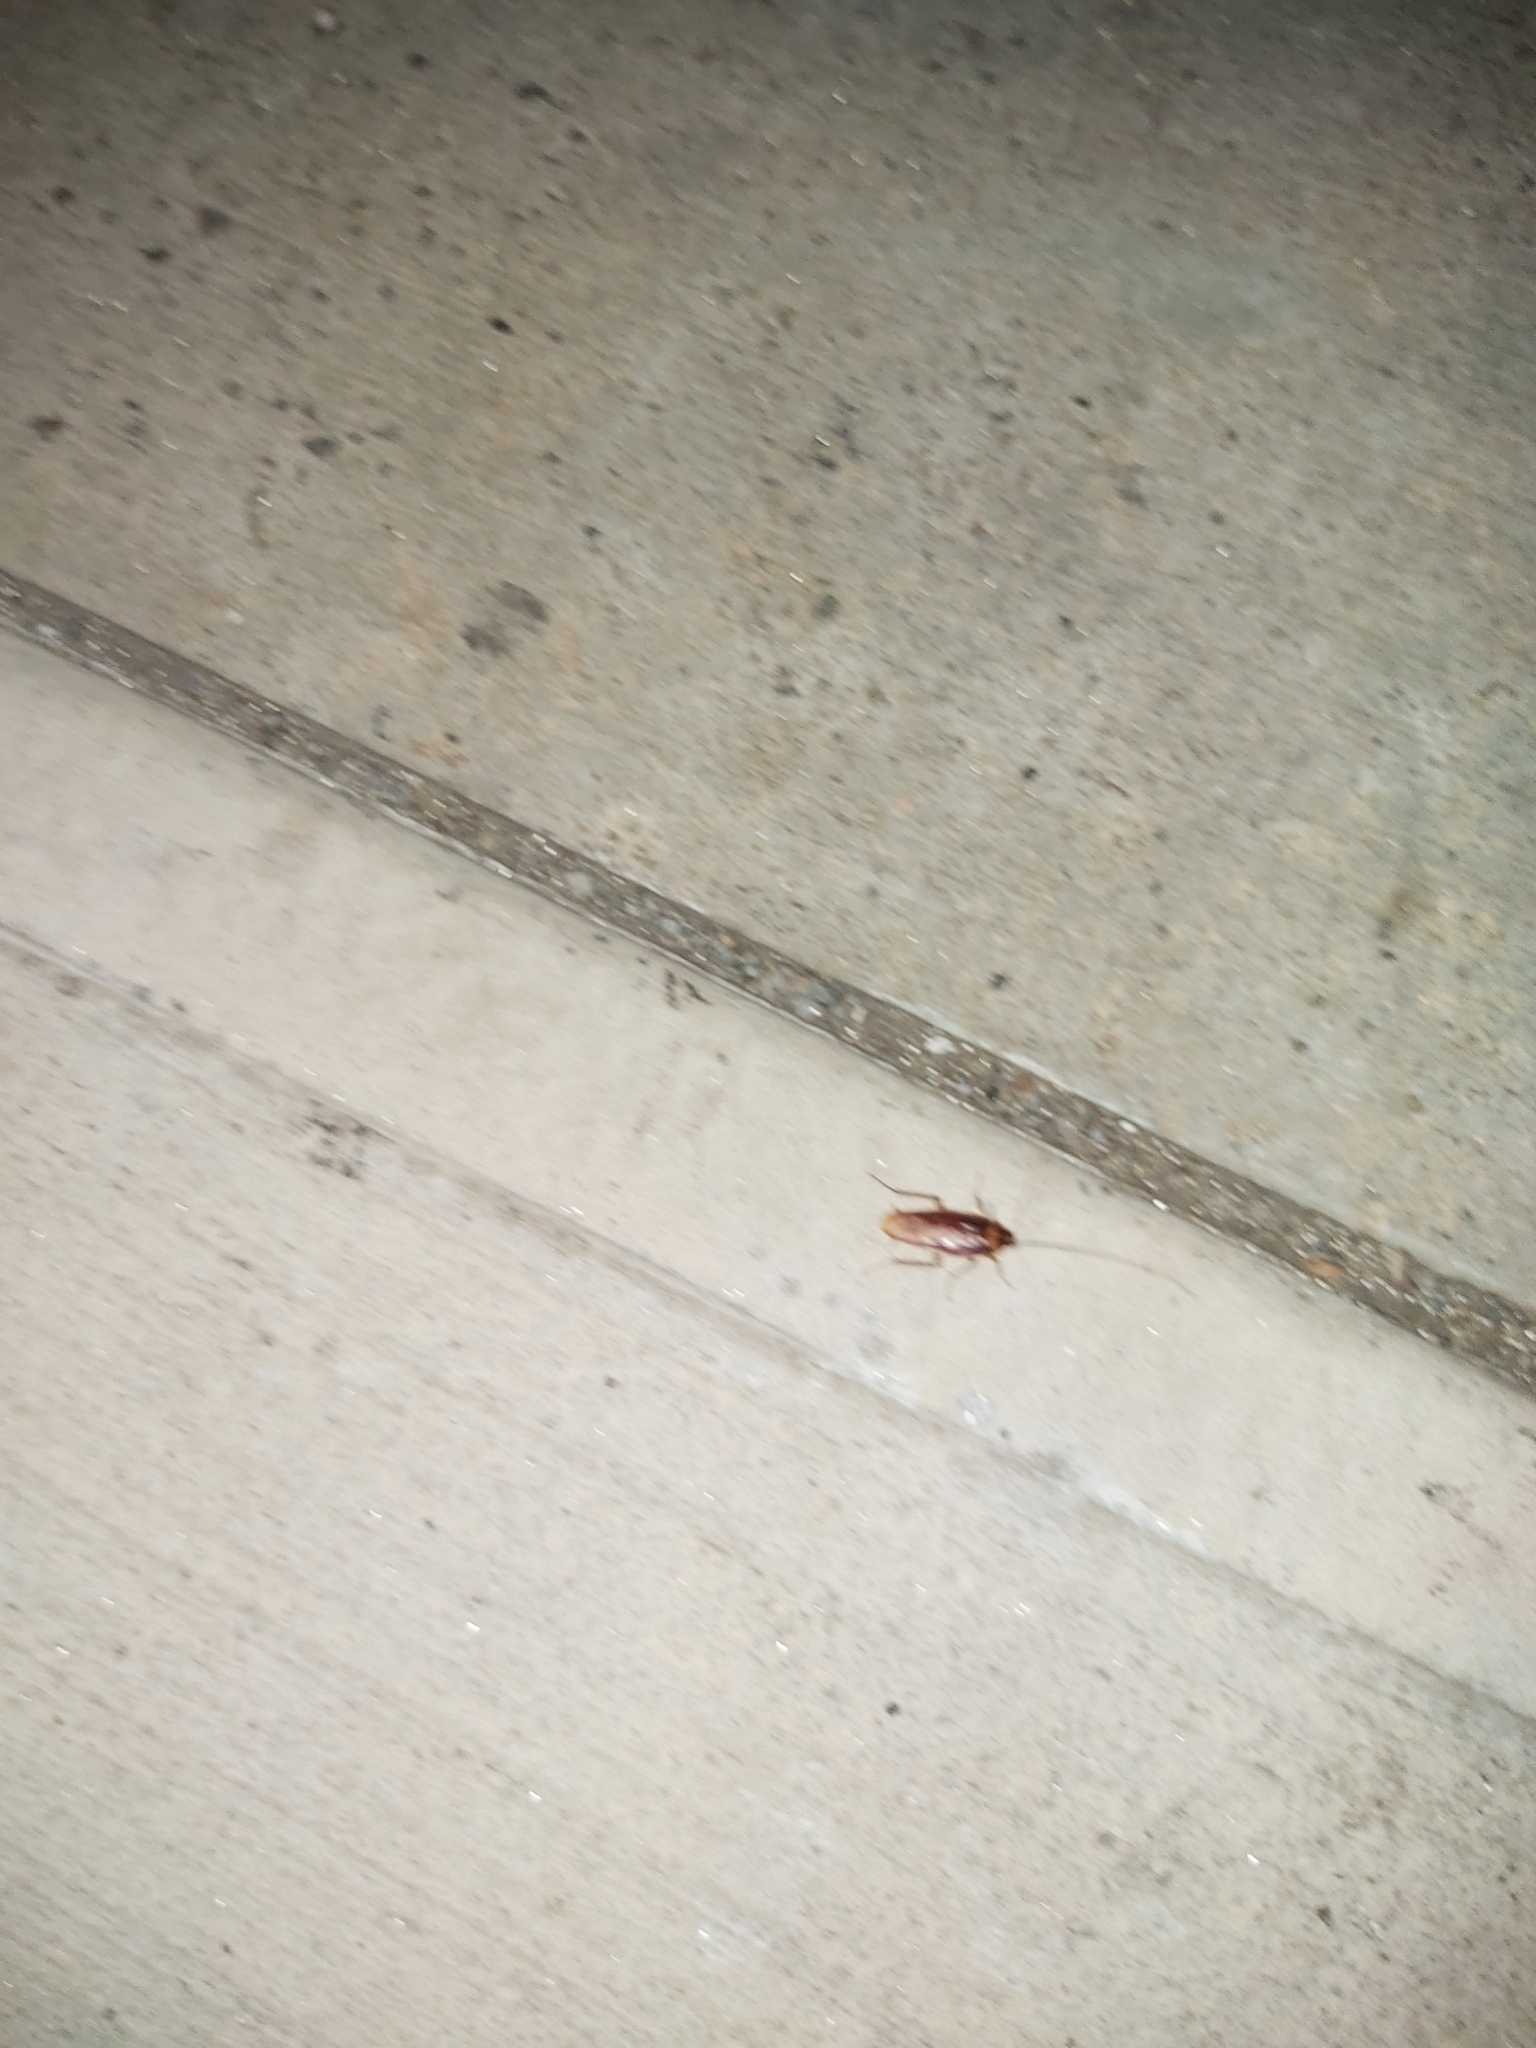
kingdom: Animalia
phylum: Arthropoda
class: Insecta
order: Blattodea
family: Blattidae
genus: Periplaneta
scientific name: Periplaneta americana
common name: American cockroach
